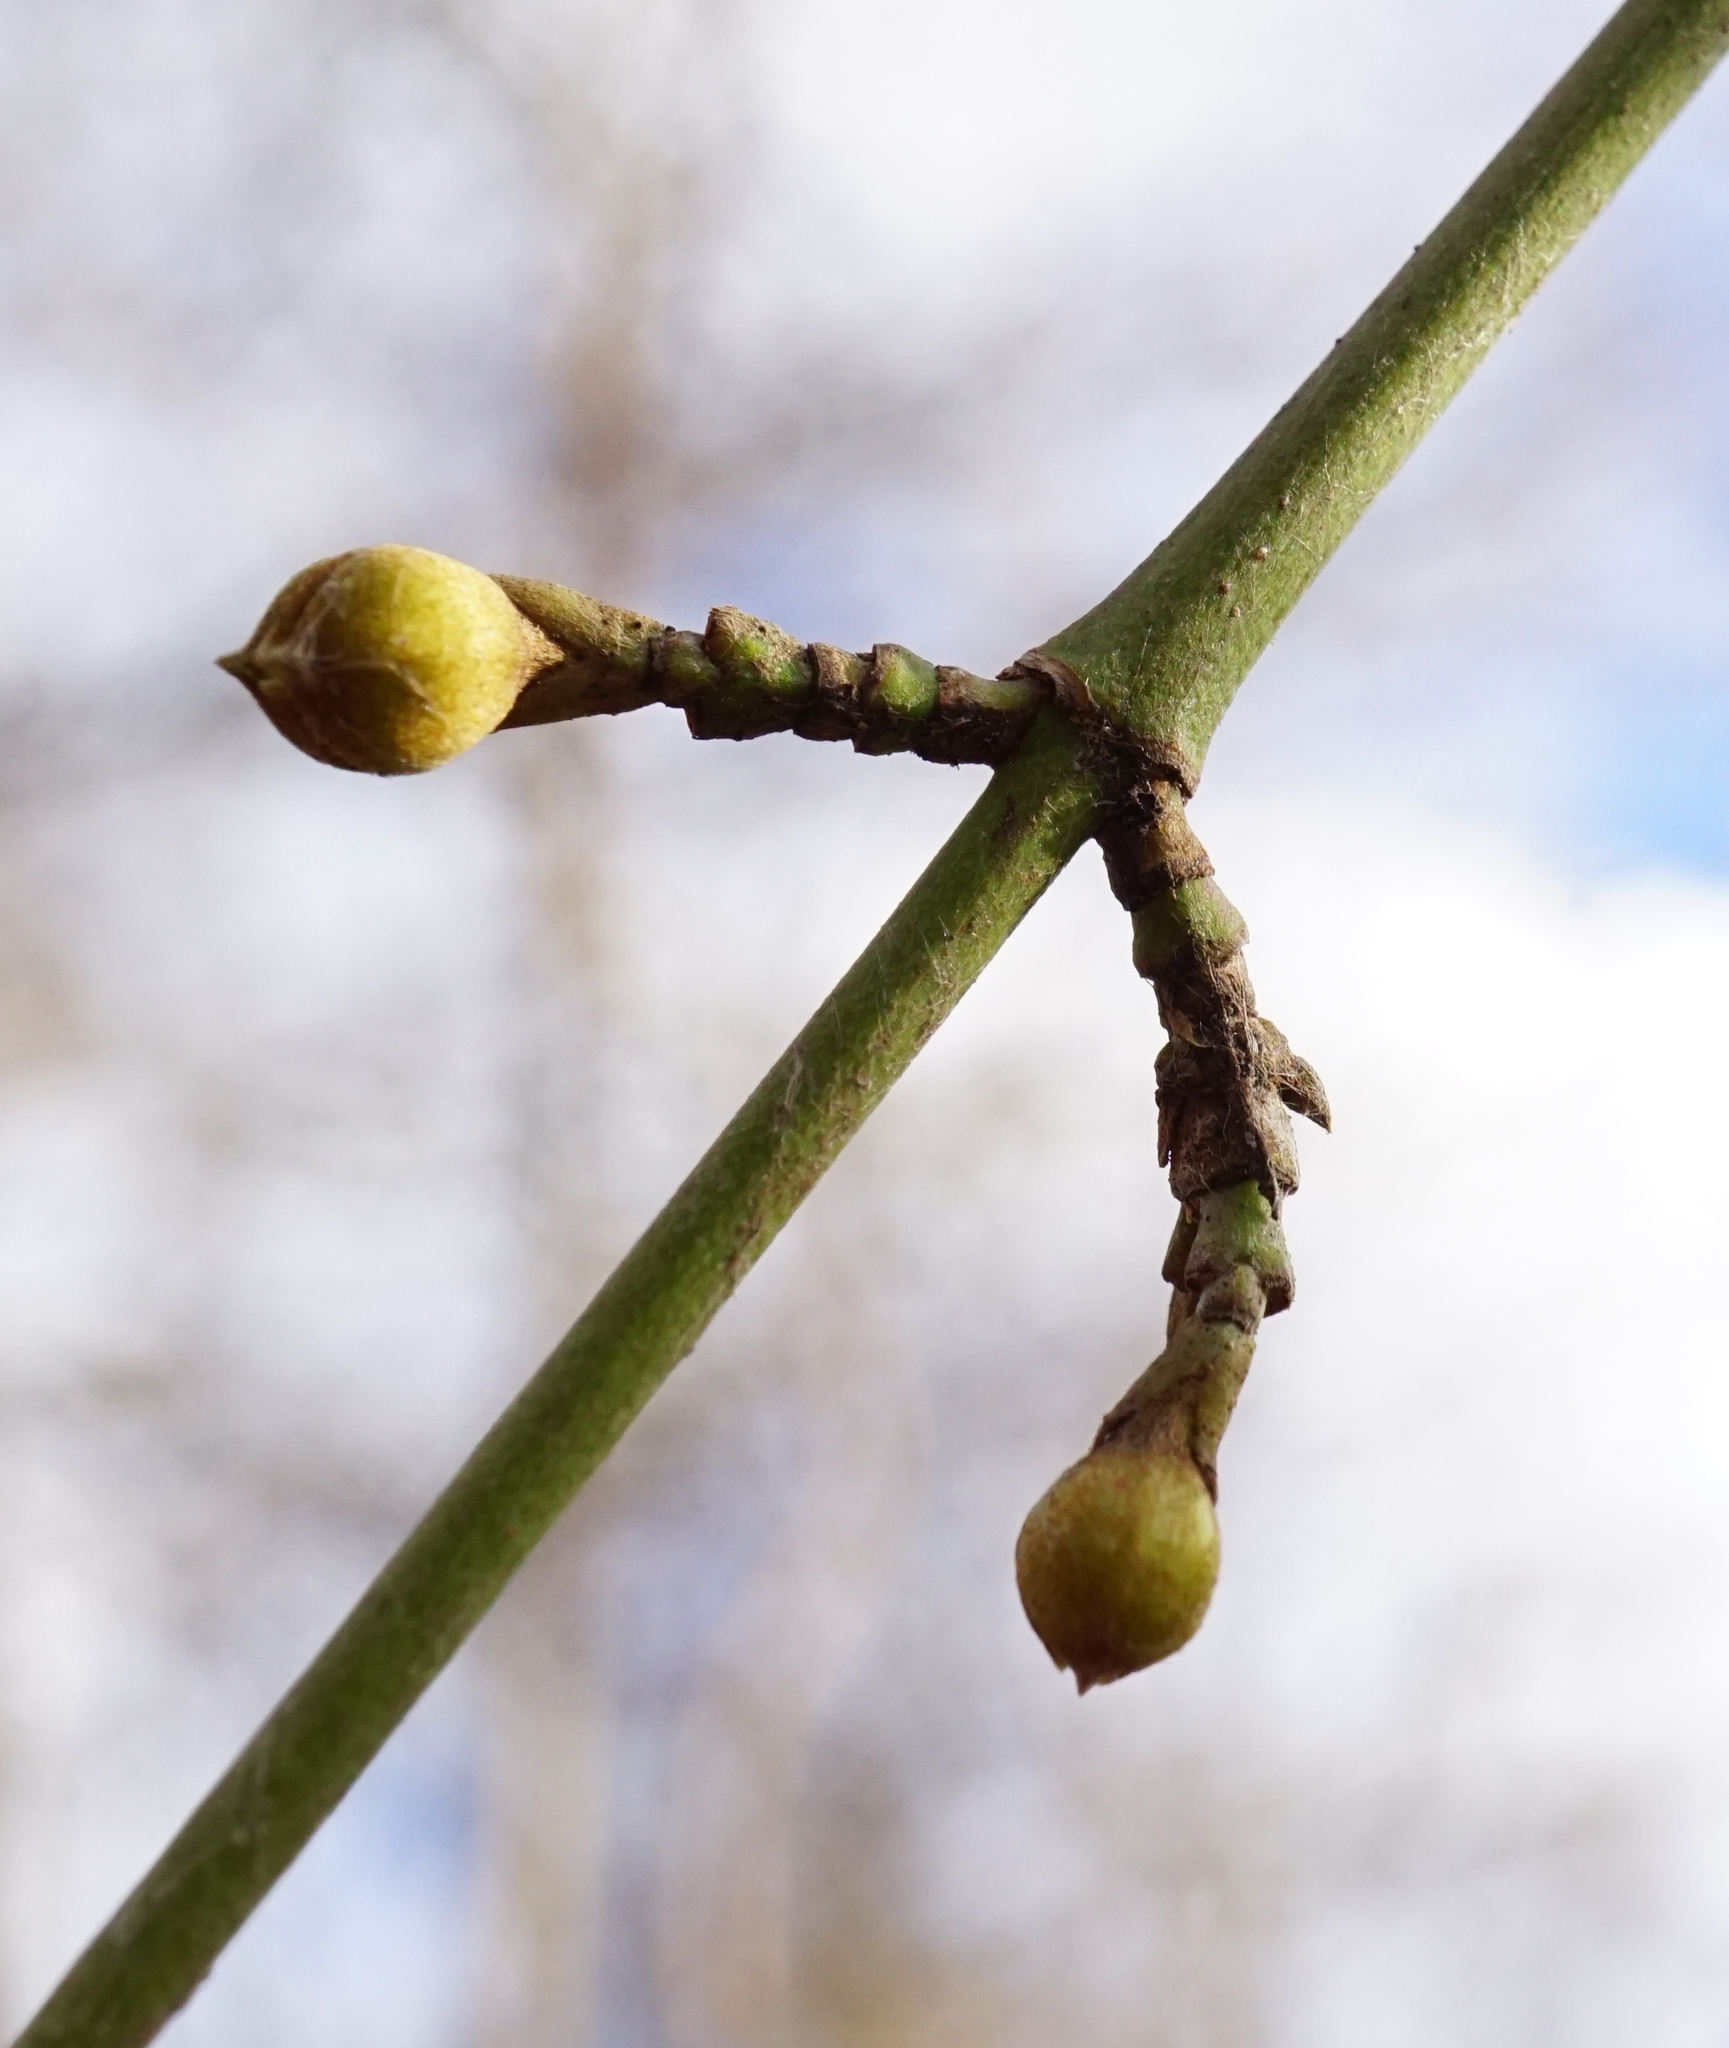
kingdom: Plantae
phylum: Tracheophyta
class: Magnoliopsida
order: Cornales
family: Cornaceae
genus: Cornus
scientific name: Cornus mas
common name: Cornelian-cherry
